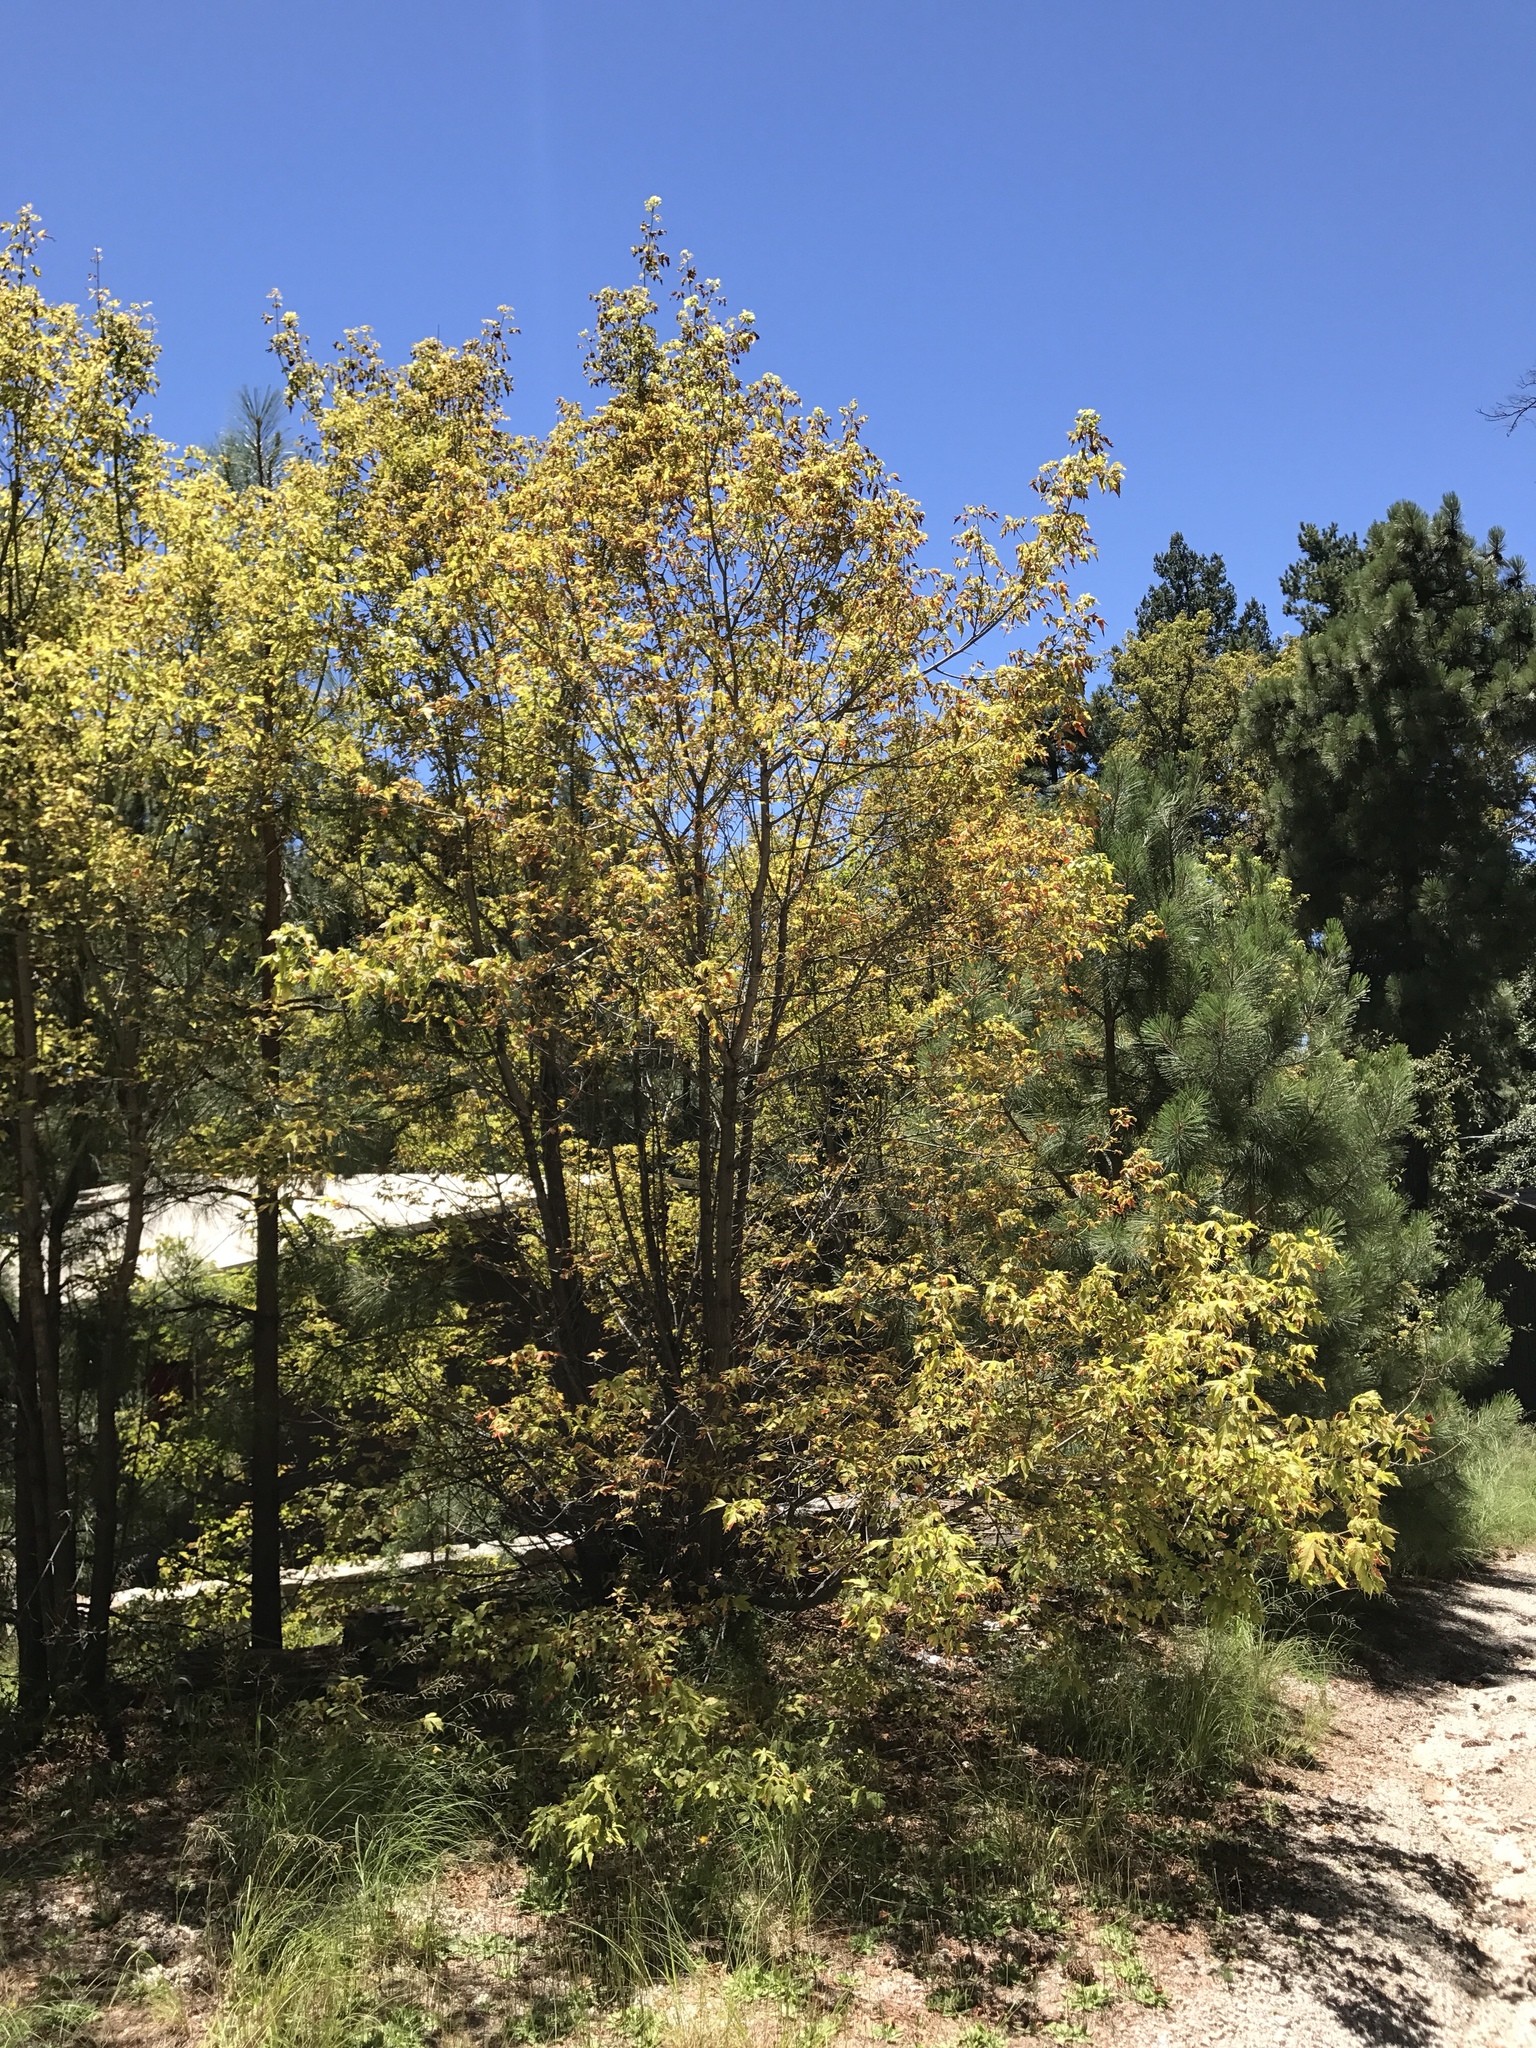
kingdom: Plantae
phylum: Tracheophyta
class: Magnoliopsida
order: Sapindales
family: Sapindaceae
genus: Acer
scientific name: Acer negundo
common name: Ashleaf maple
